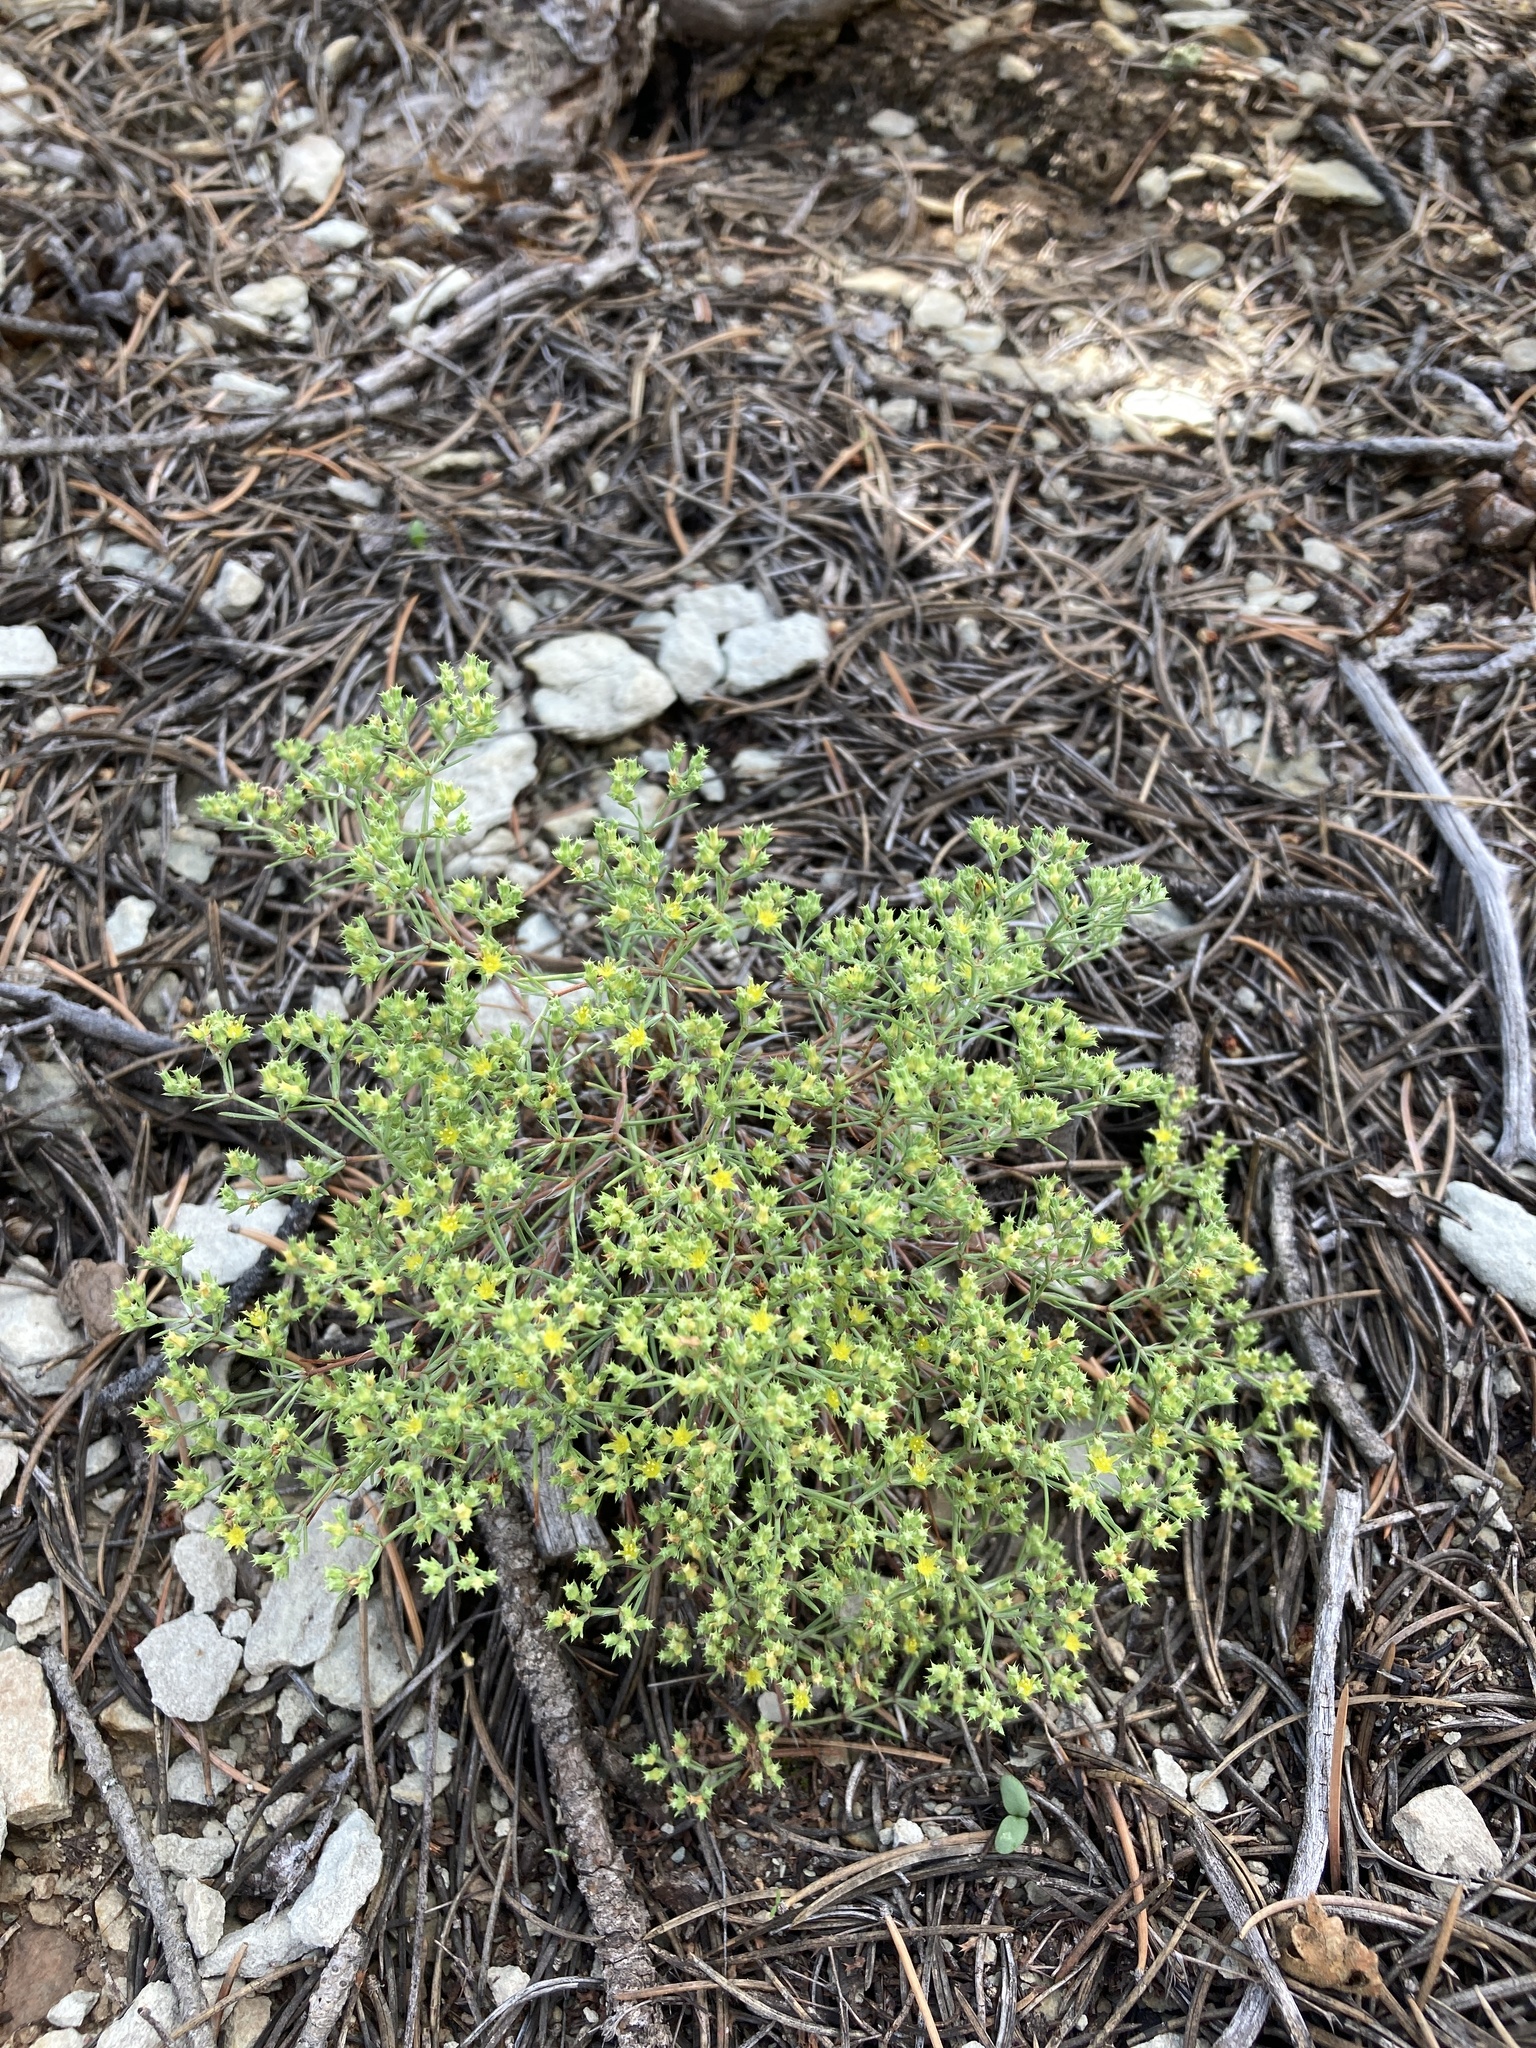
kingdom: Plantae
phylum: Tracheophyta
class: Magnoliopsida
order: Caryophyllales
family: Caryophyllaceae
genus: Paronychia
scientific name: Paronychia jamesii
